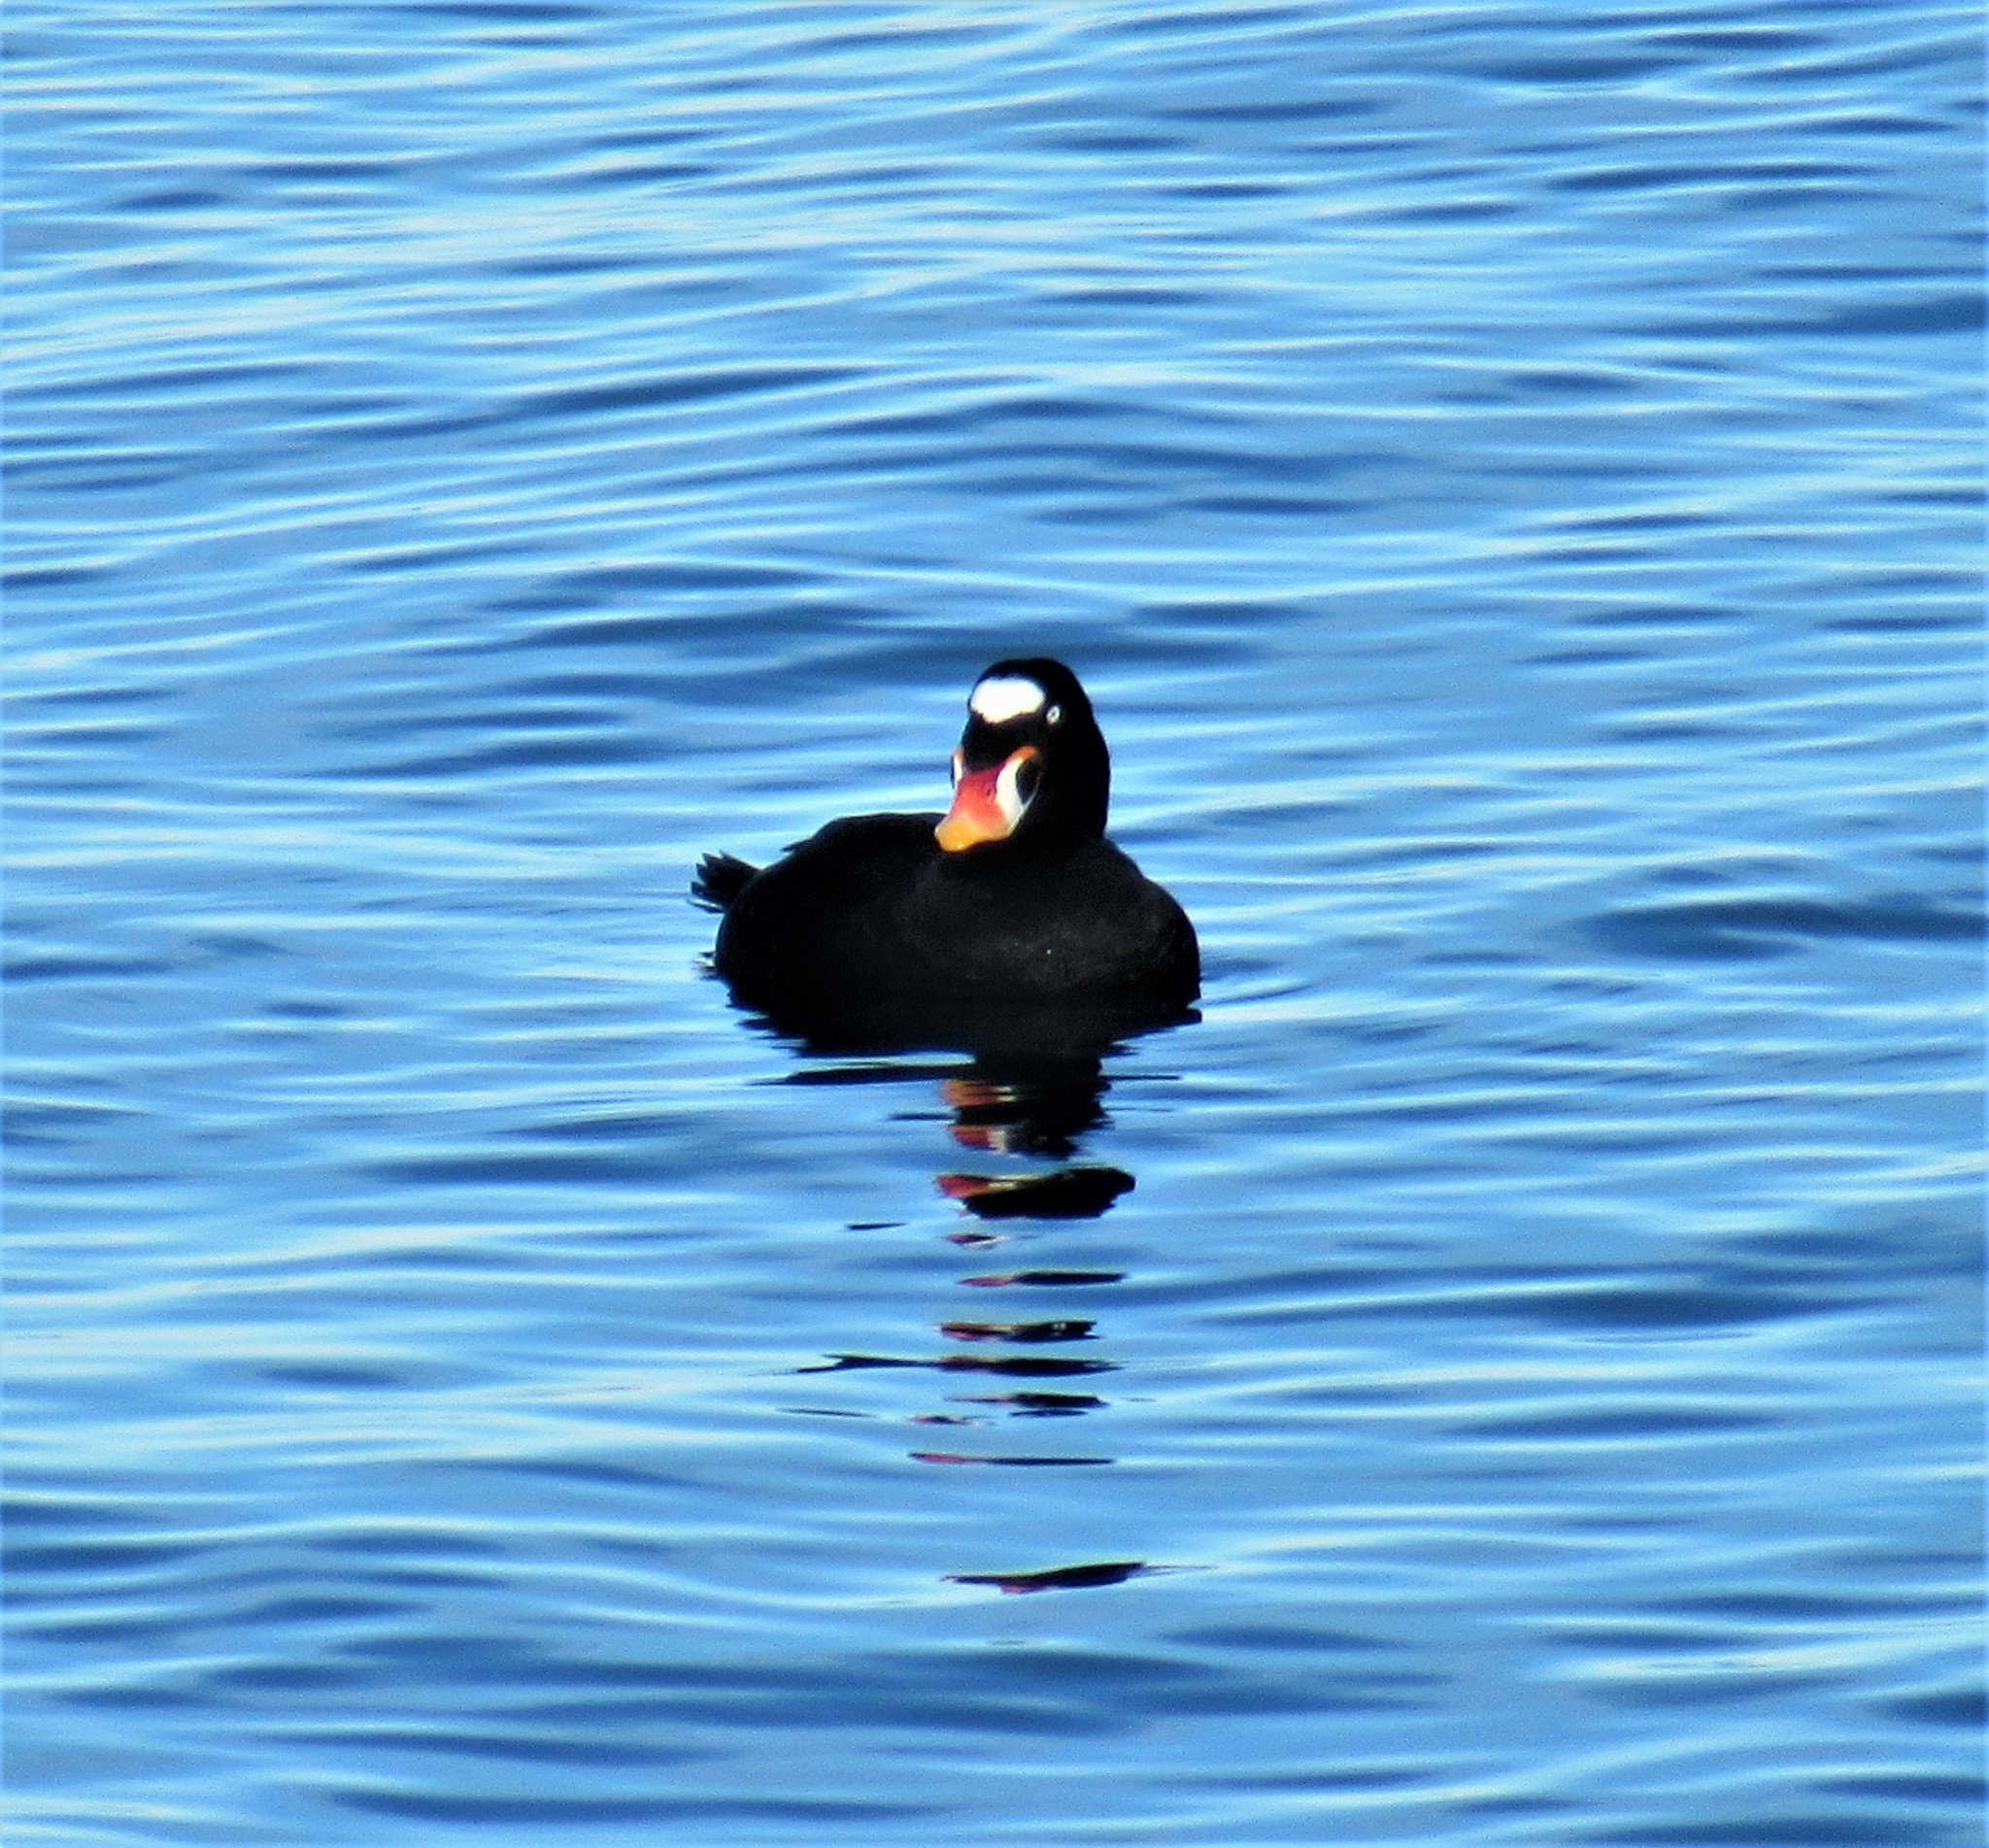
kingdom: Animalia
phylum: Chordata
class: Aves
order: Anseriformes
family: Anatidae
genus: Melanitta
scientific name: Melanitta perspicillata
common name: Surf scoter
